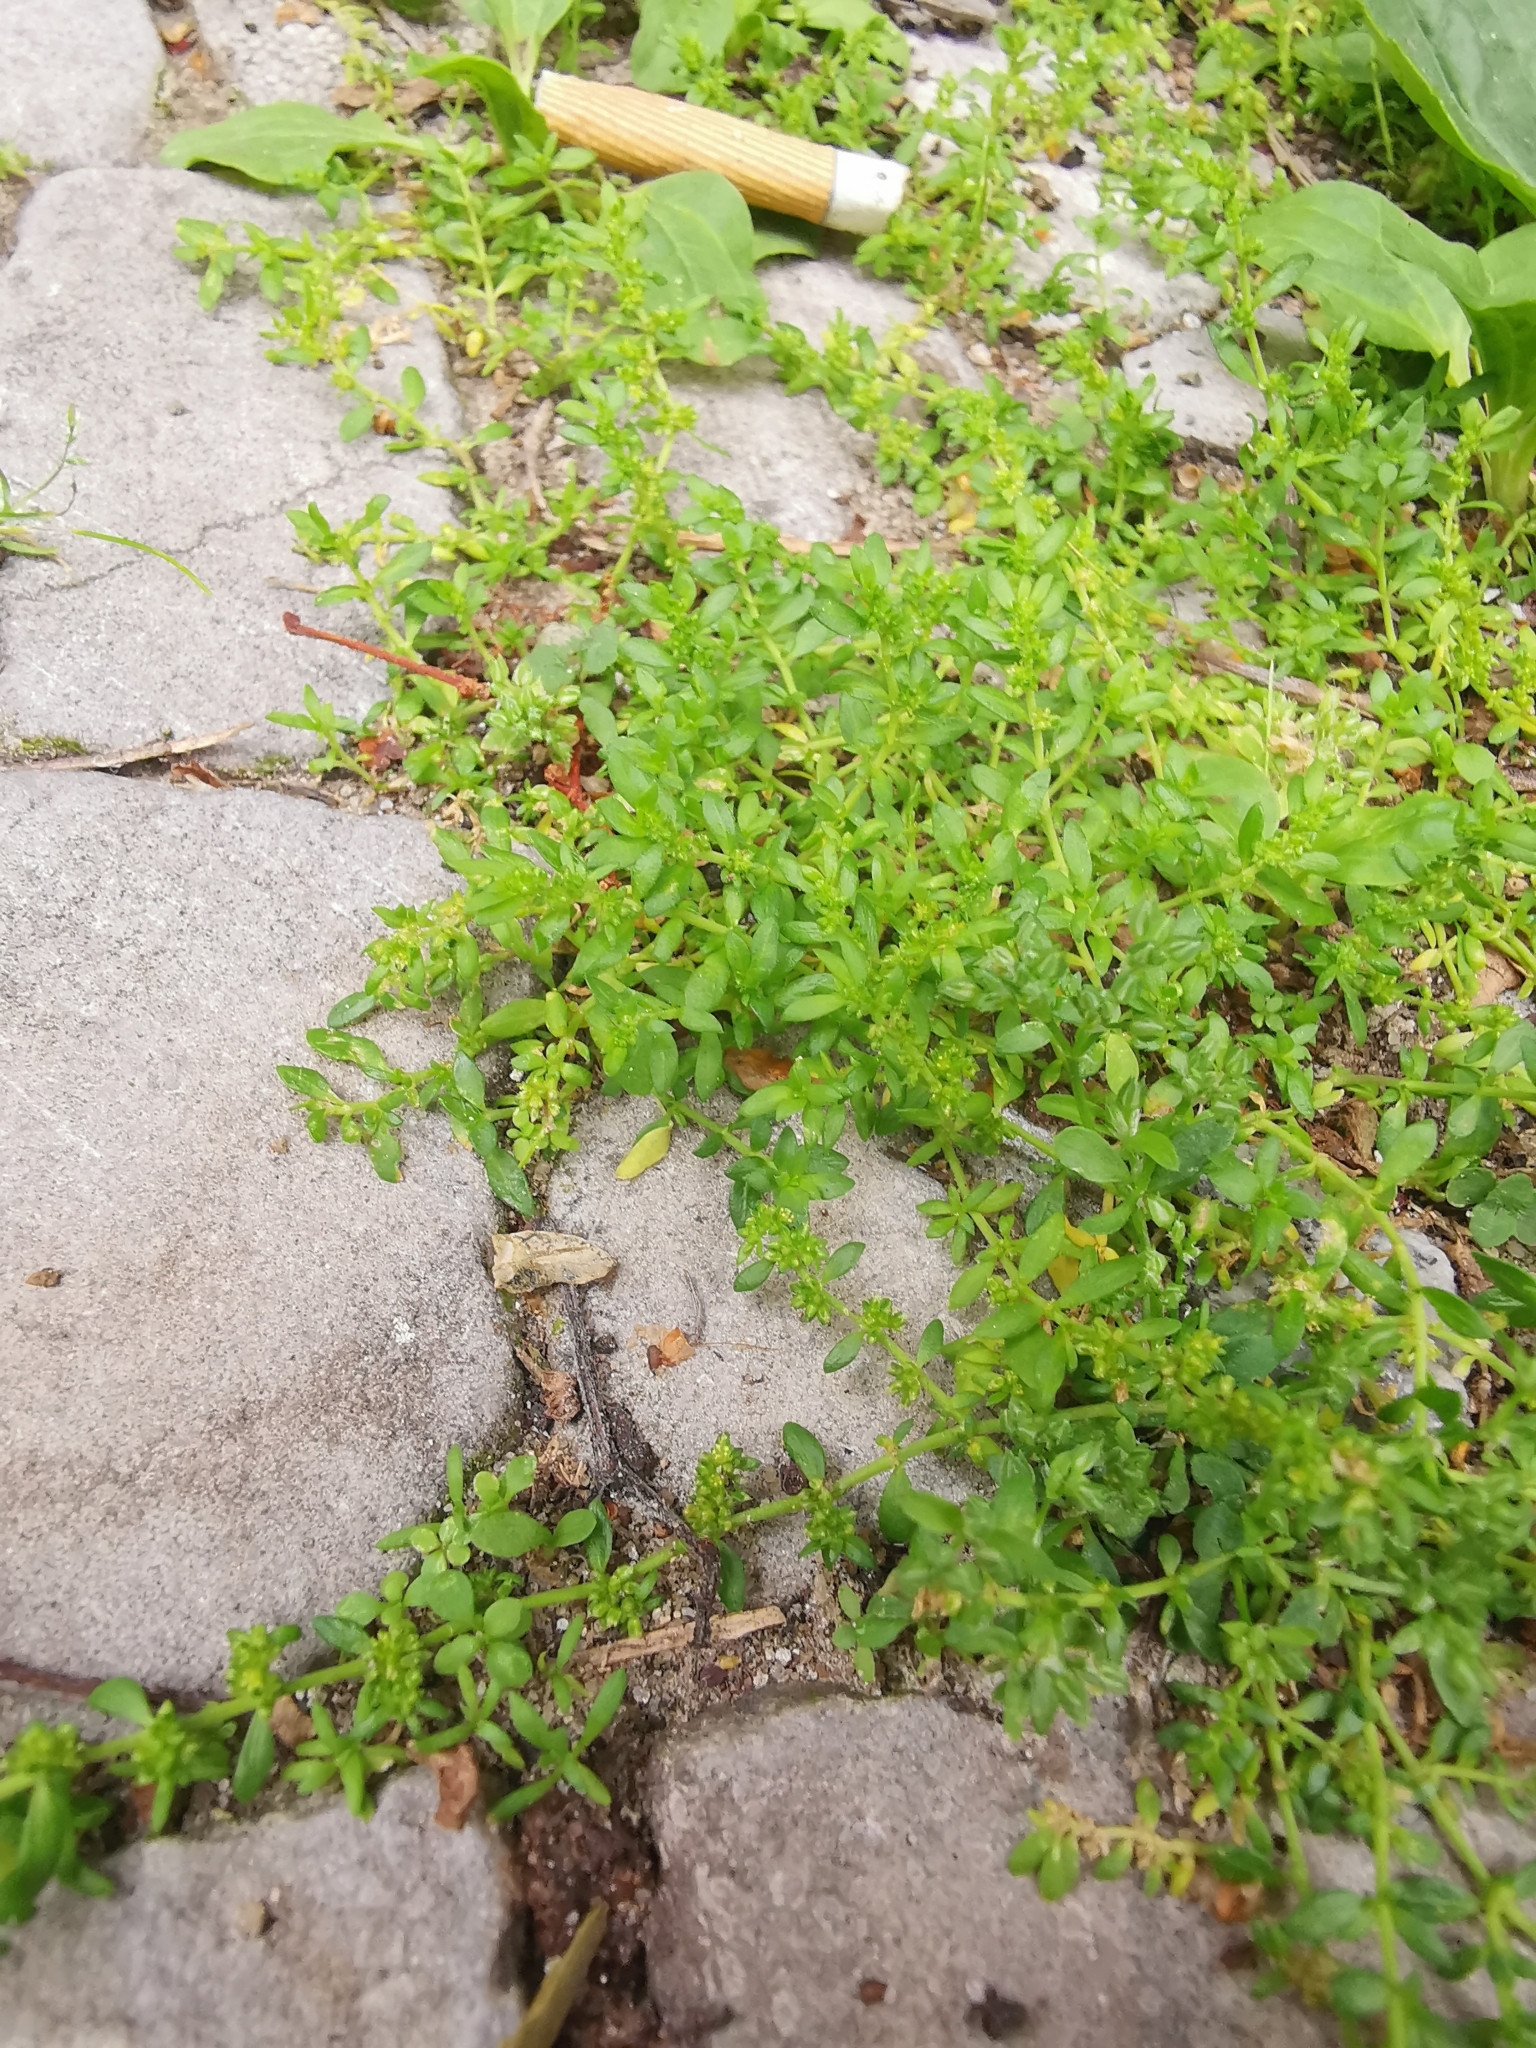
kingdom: Plantae
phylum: Tracheophyta
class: Magnoliopsida
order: Caryophyllales
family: Caryophyllaceae
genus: Herniaria
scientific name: Herniaria glabra
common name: Smooth rupturewort
